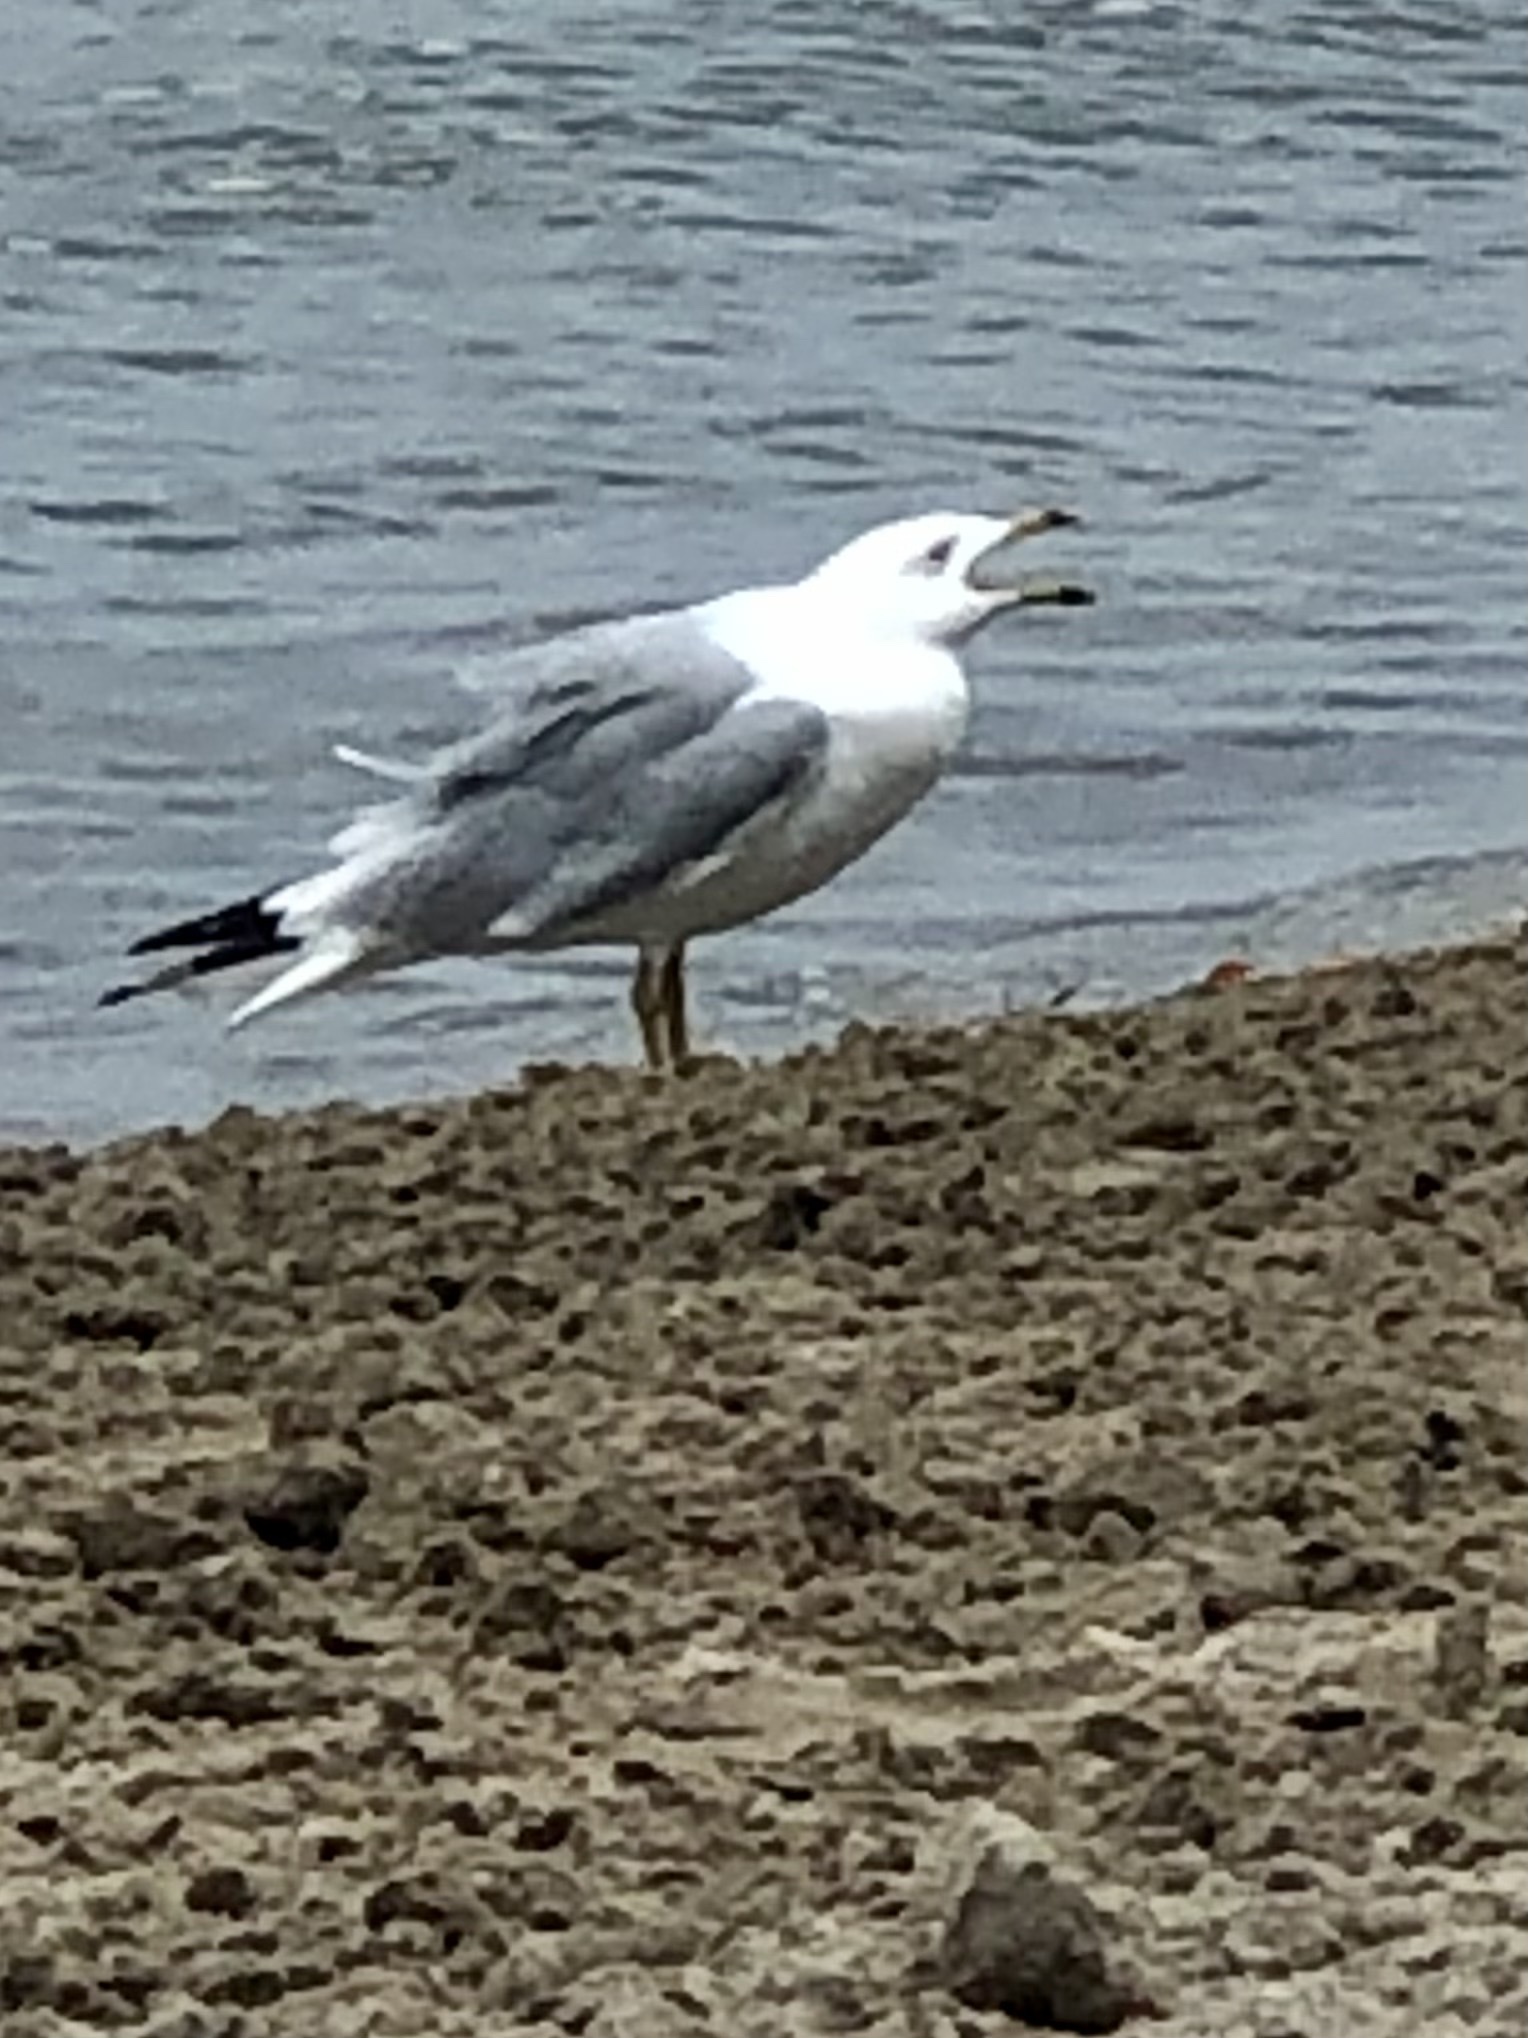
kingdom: Animalia
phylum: Chordata
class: Aves
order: Charadriiformes
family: Laridae
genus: Larus
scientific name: Larus delawarensis
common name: Ring-billed gull
